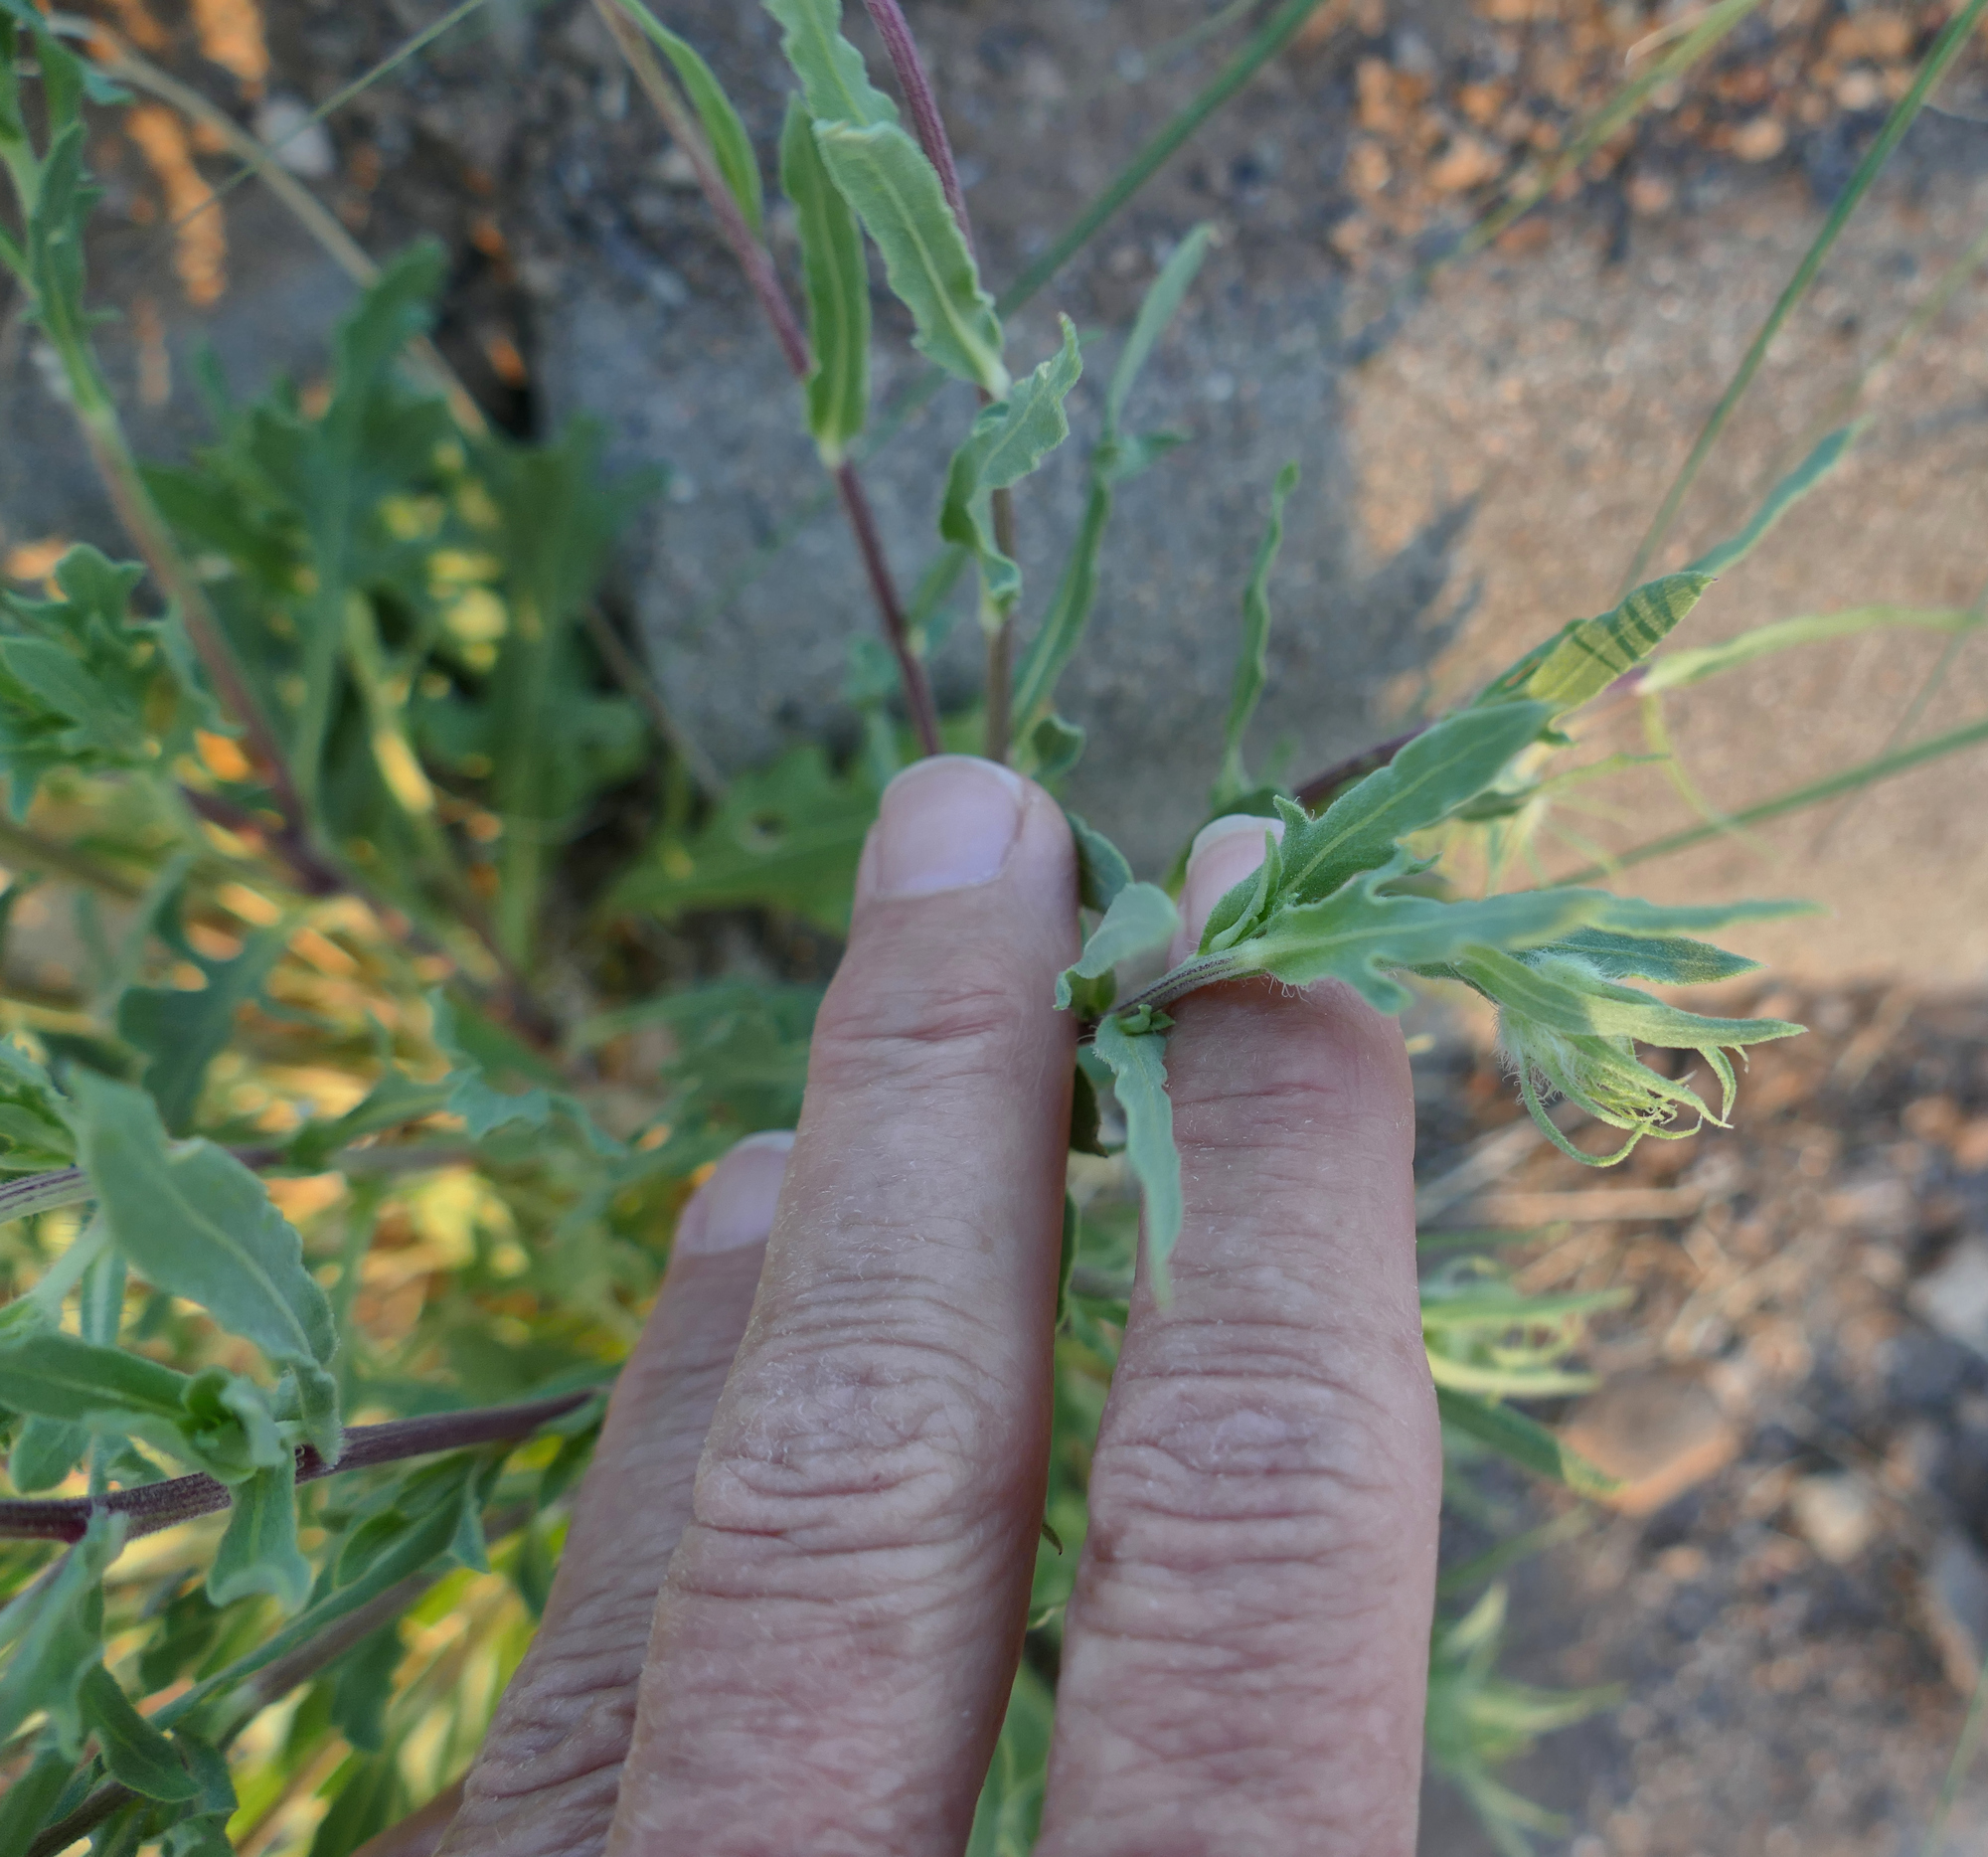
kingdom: Plantae
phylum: Tracheophyta
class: Magnoliopsida
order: Asterales
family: Asteraceae
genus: Gaillardia
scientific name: Gaillardia pinnatifida
